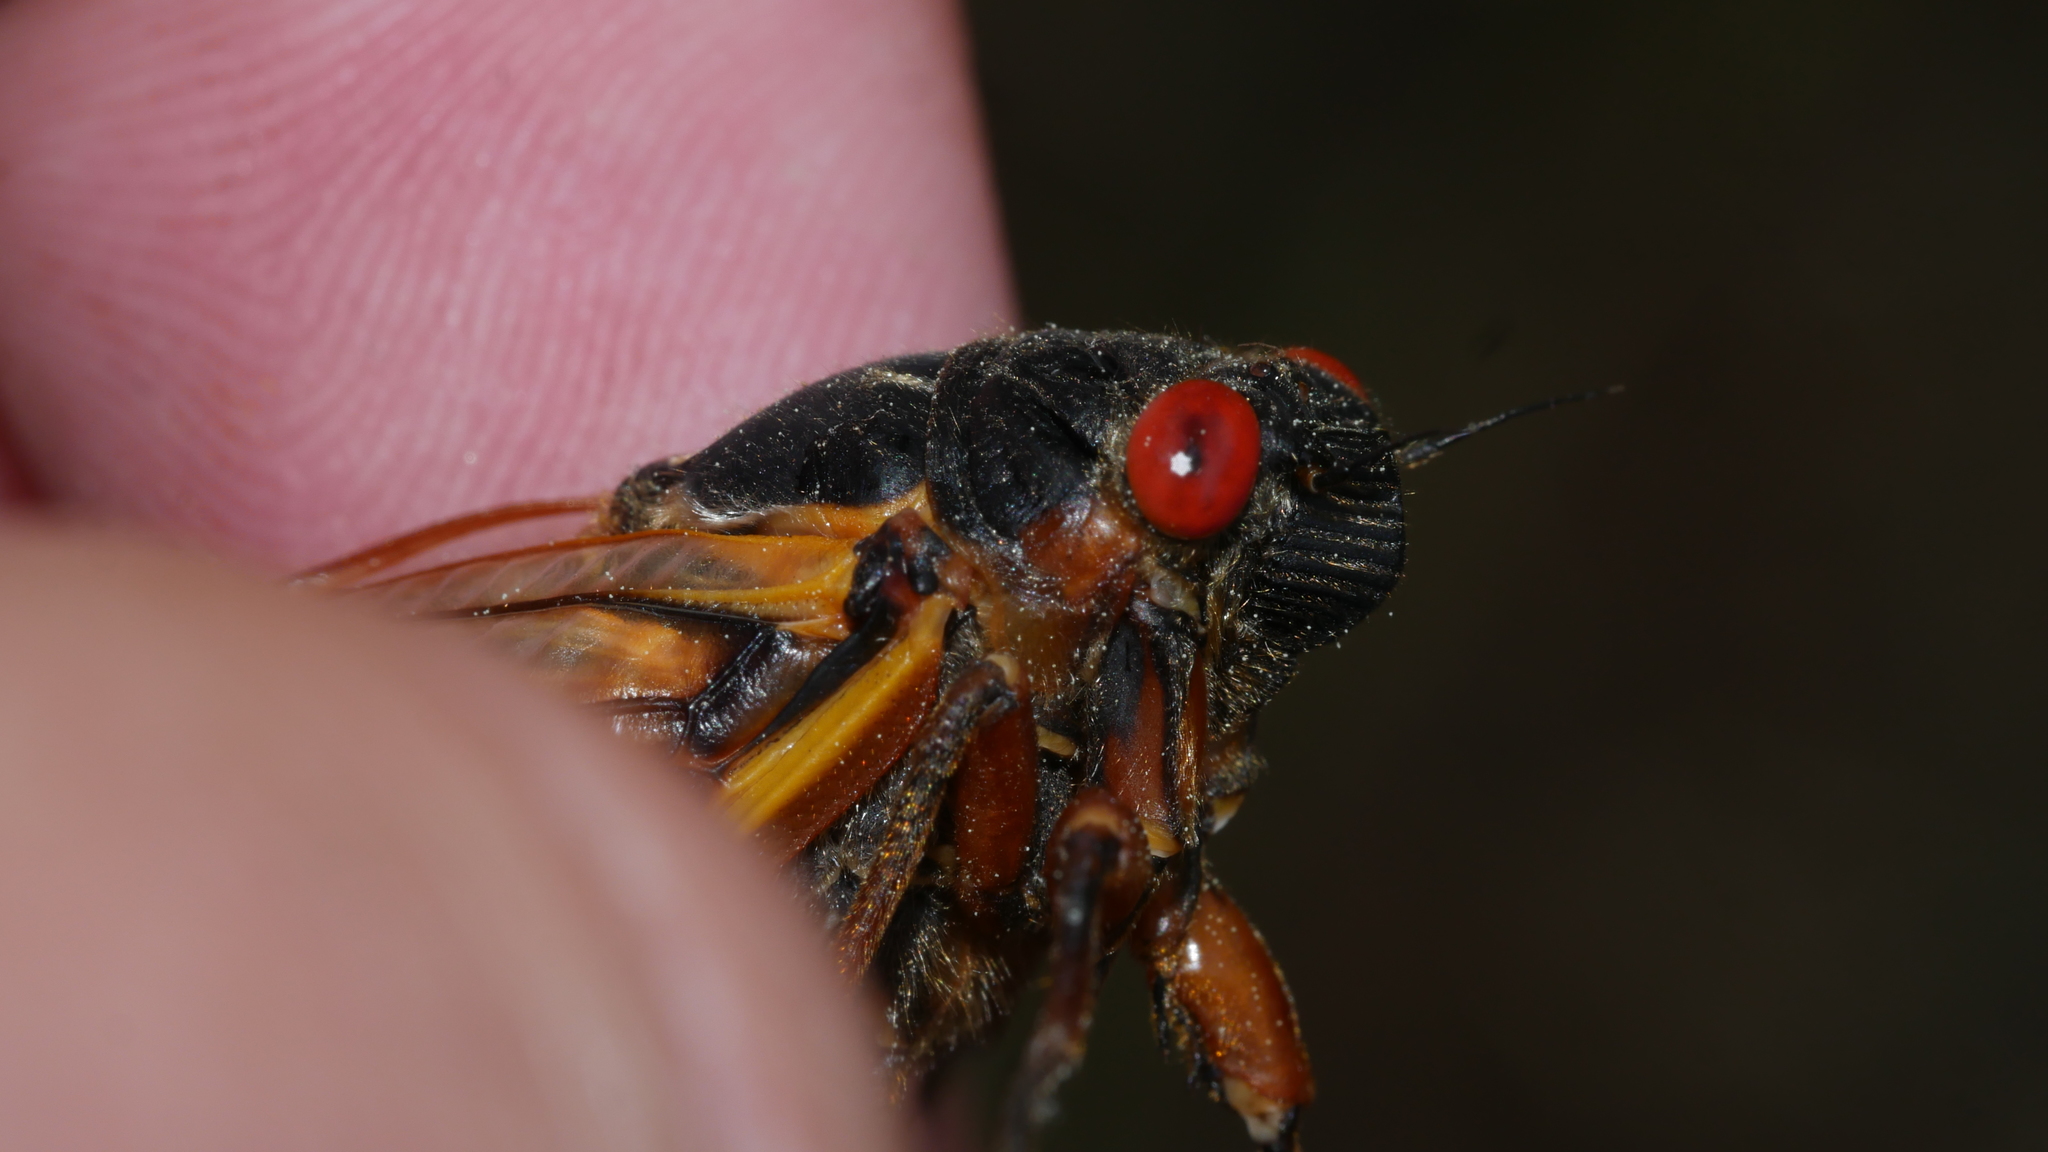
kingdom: Animalia
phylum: Arthropoda
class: Insecta
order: Hemiptera
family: Cicadidae
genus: Magicicada
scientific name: Magicicada septendecim
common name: Periodical cicada
